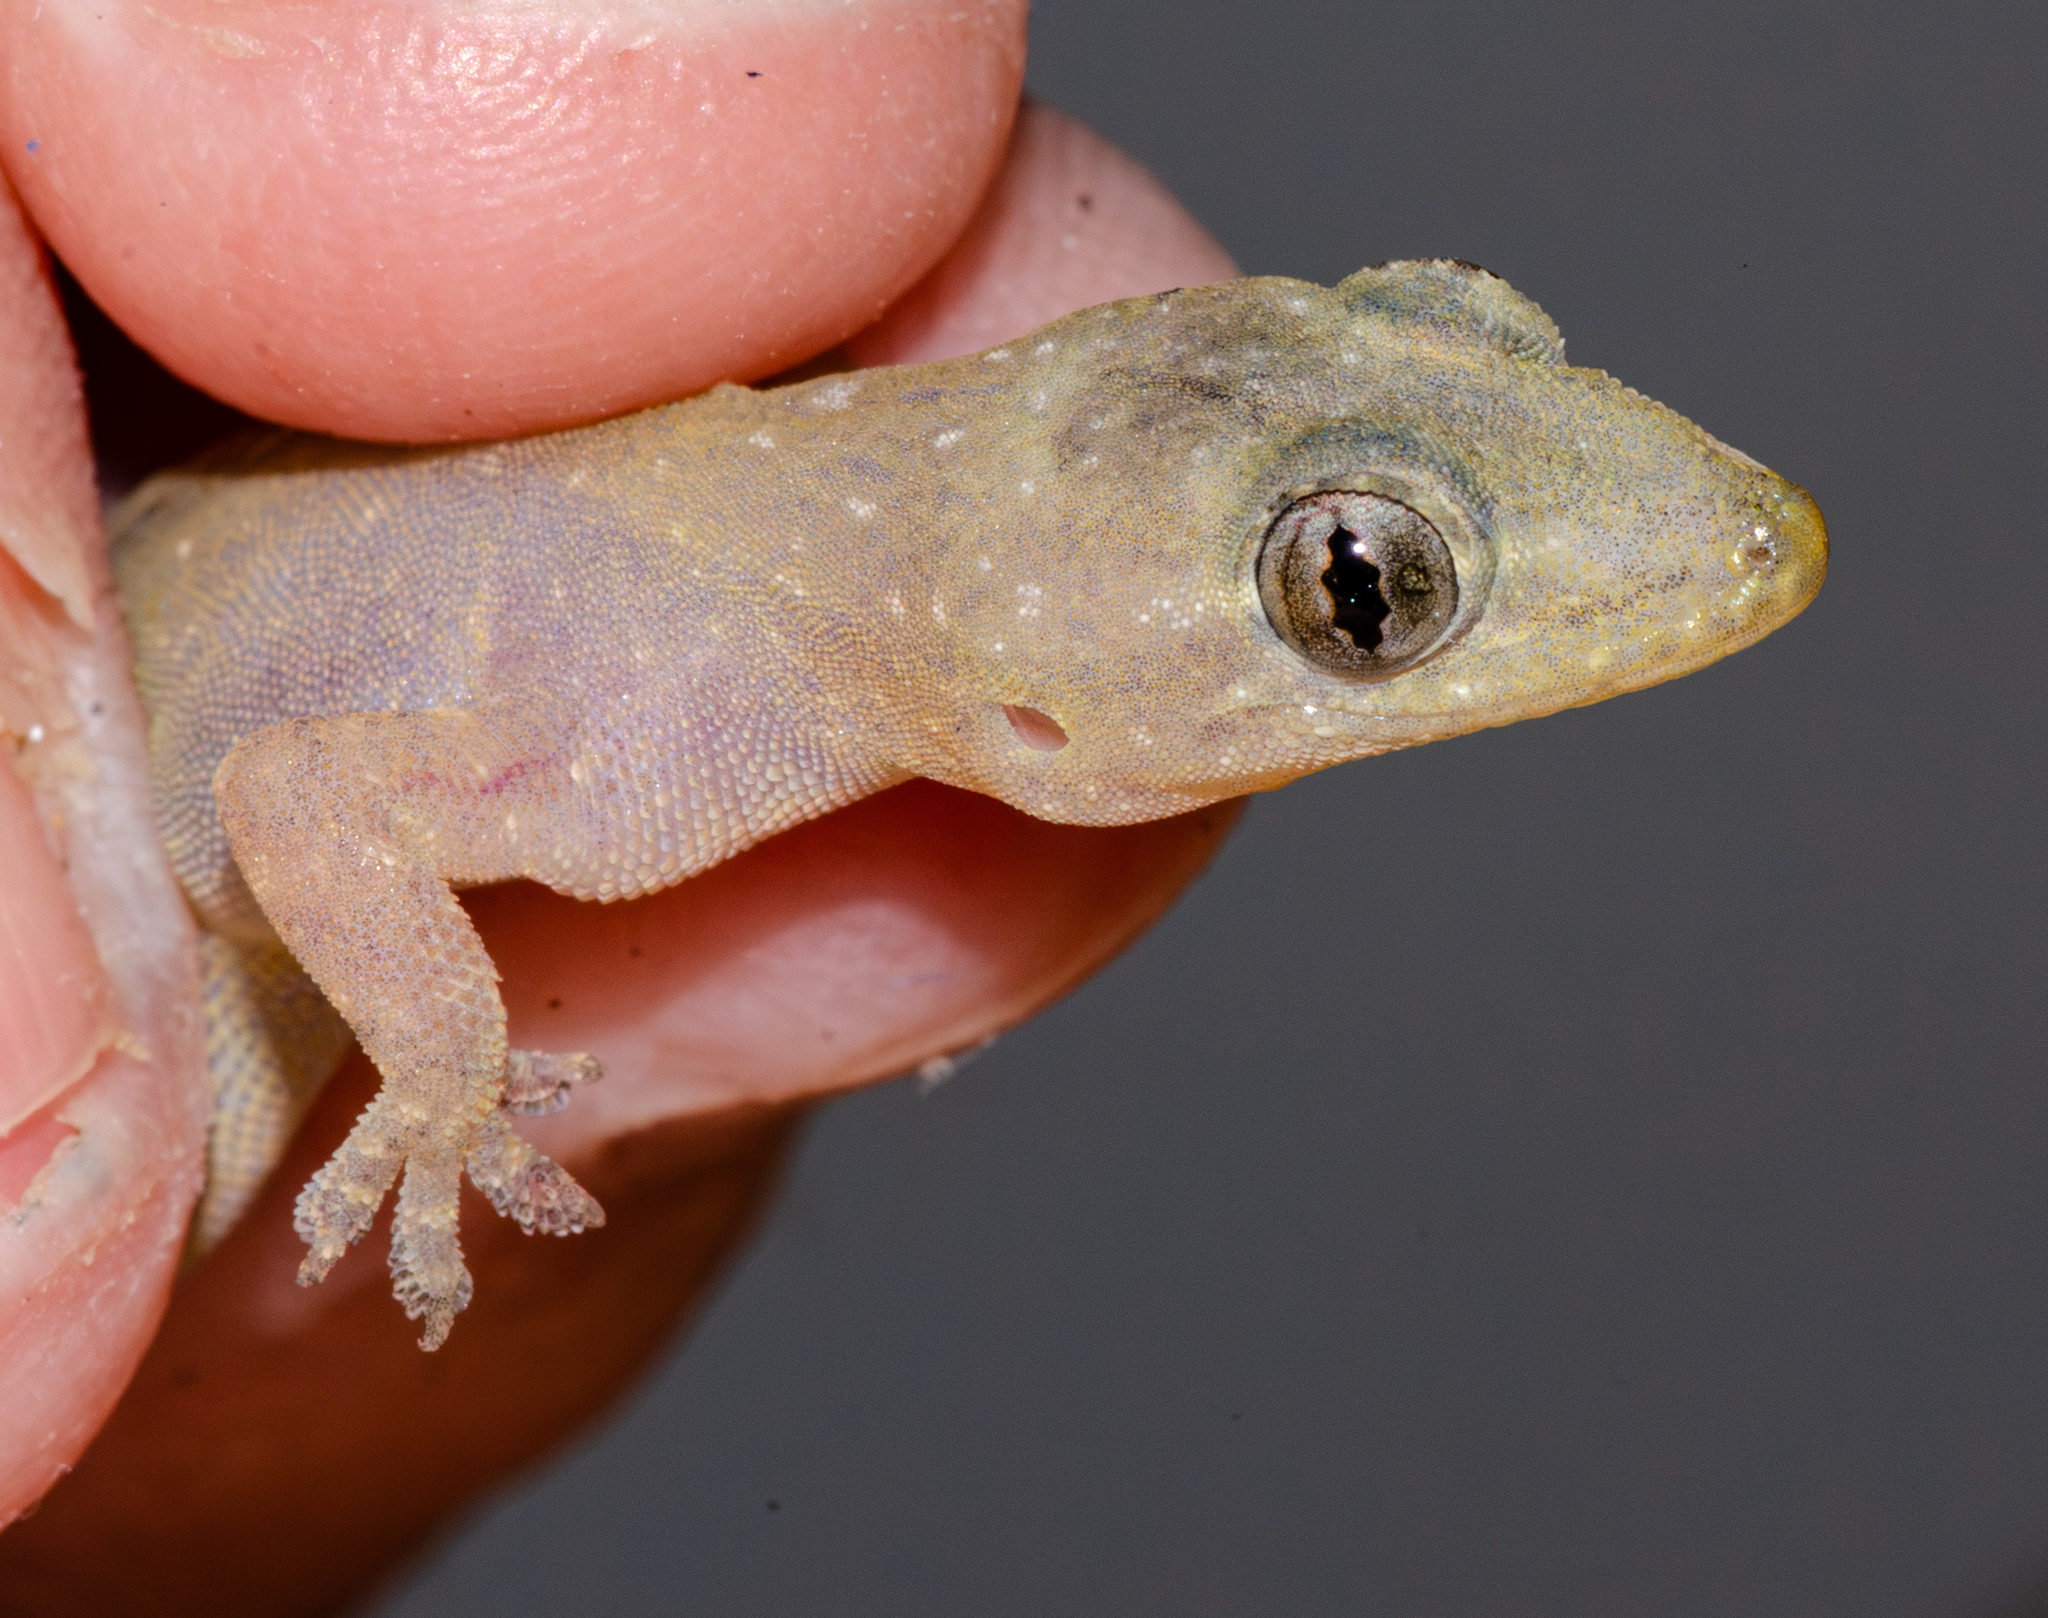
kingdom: Animalia
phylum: Chordata
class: Squamata
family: Gekkonidae
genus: Hemidactylus
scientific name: Hemidactylus frenatus
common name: Common house gecko
